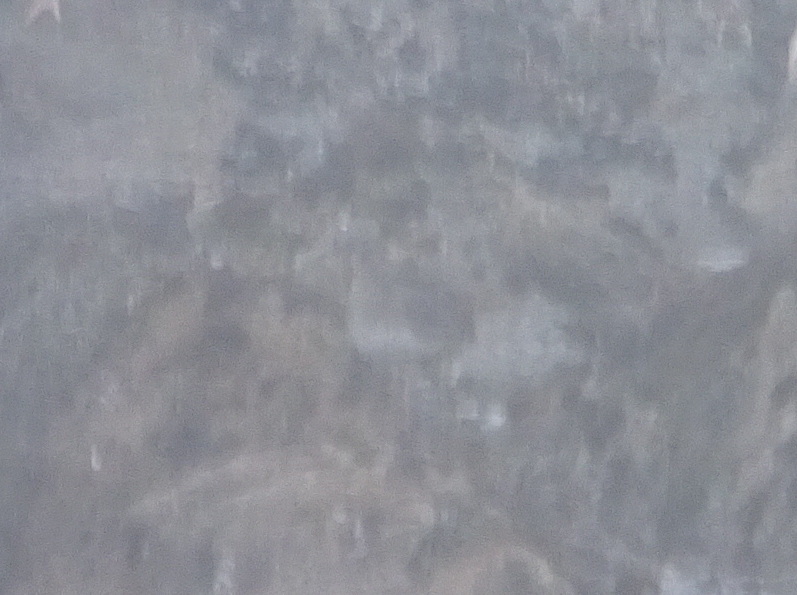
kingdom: Animalia
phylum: Chordata
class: Aves
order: Charadriiformes
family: Scolopacidae
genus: Calidris
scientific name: Calidris virgata
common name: Surfbird
